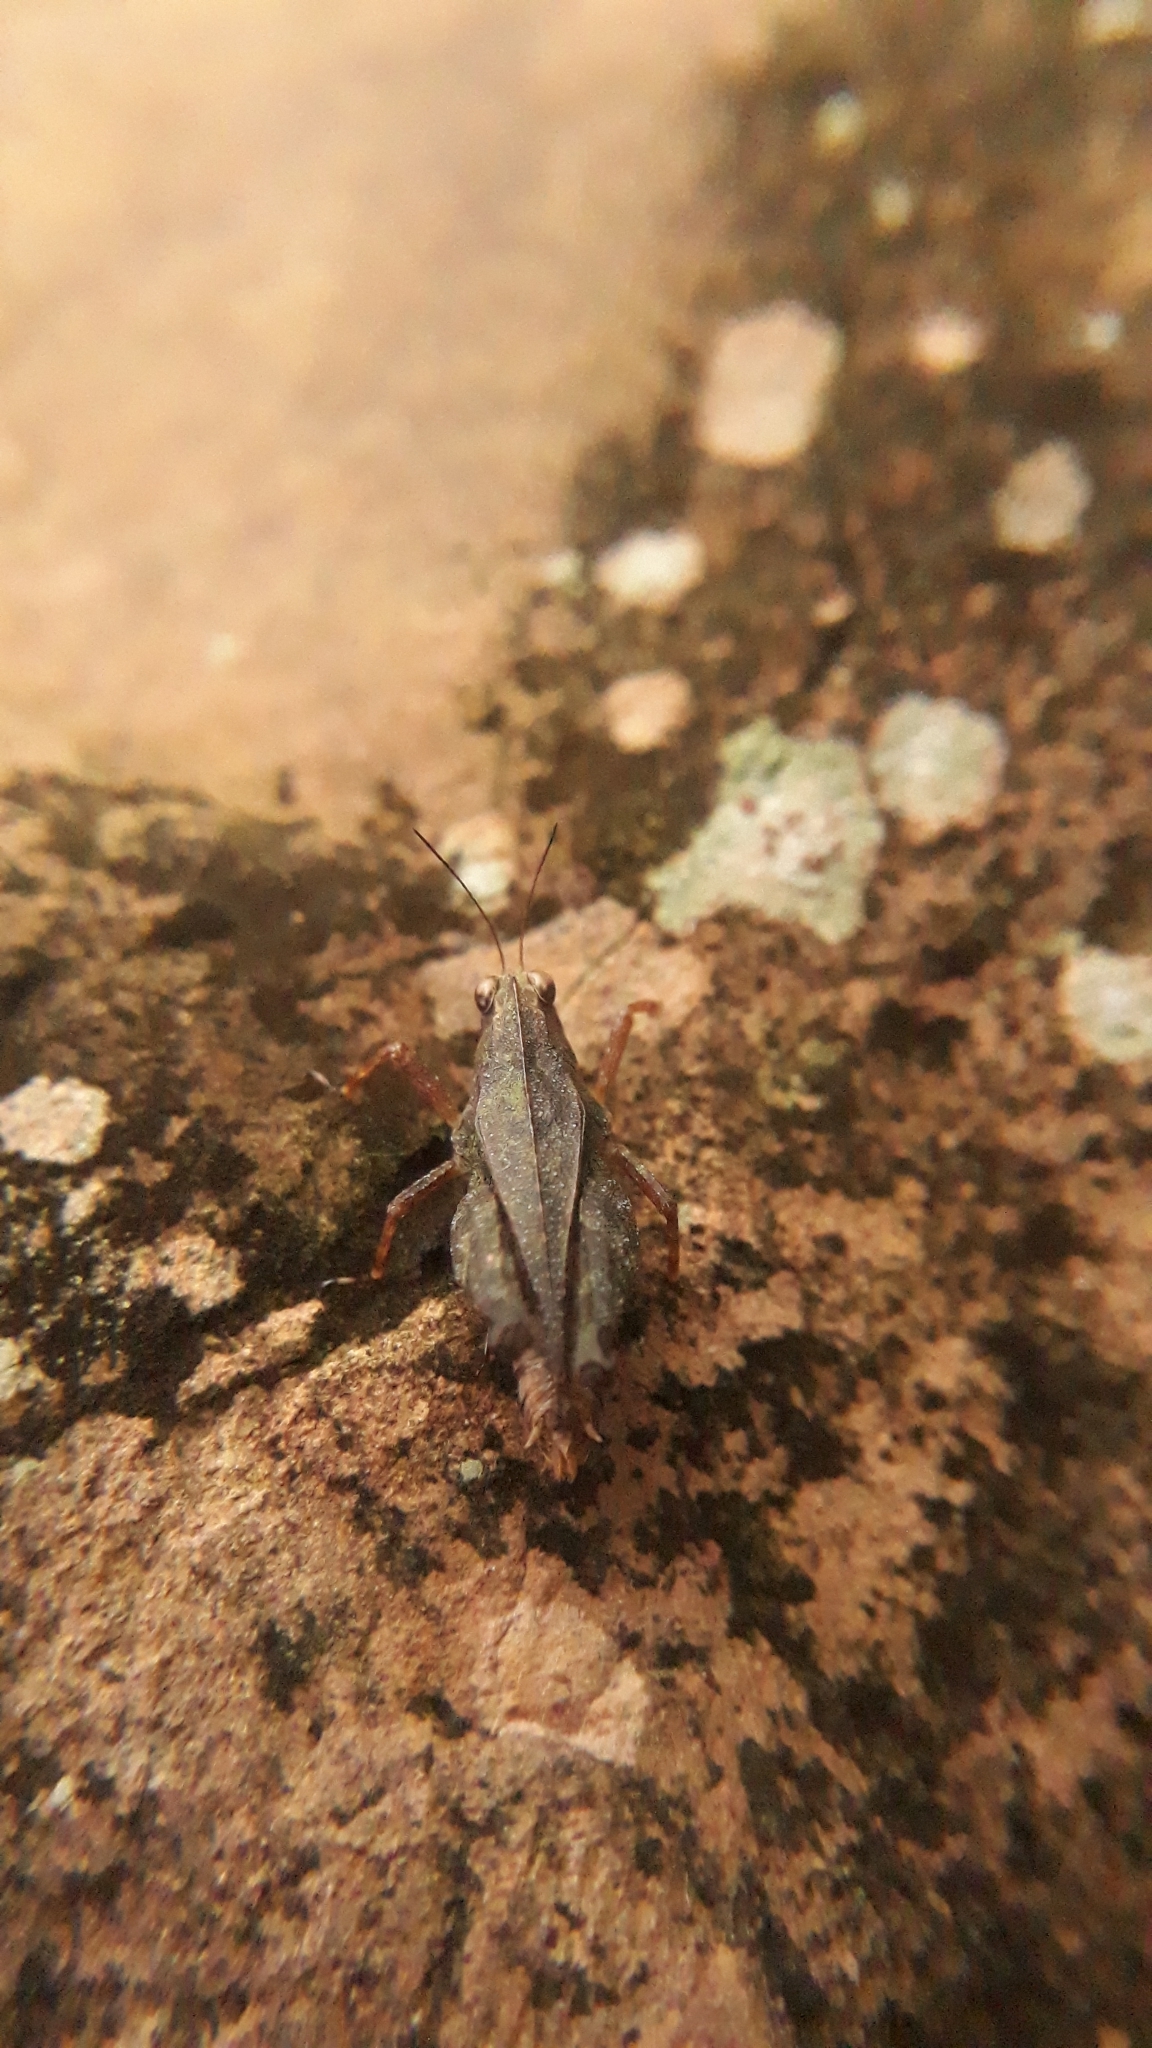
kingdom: Animalia
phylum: Arthropoda
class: Insecta
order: Orthoptera
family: Tetrigidae
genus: Batrachidea
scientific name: Batrachidea planus
